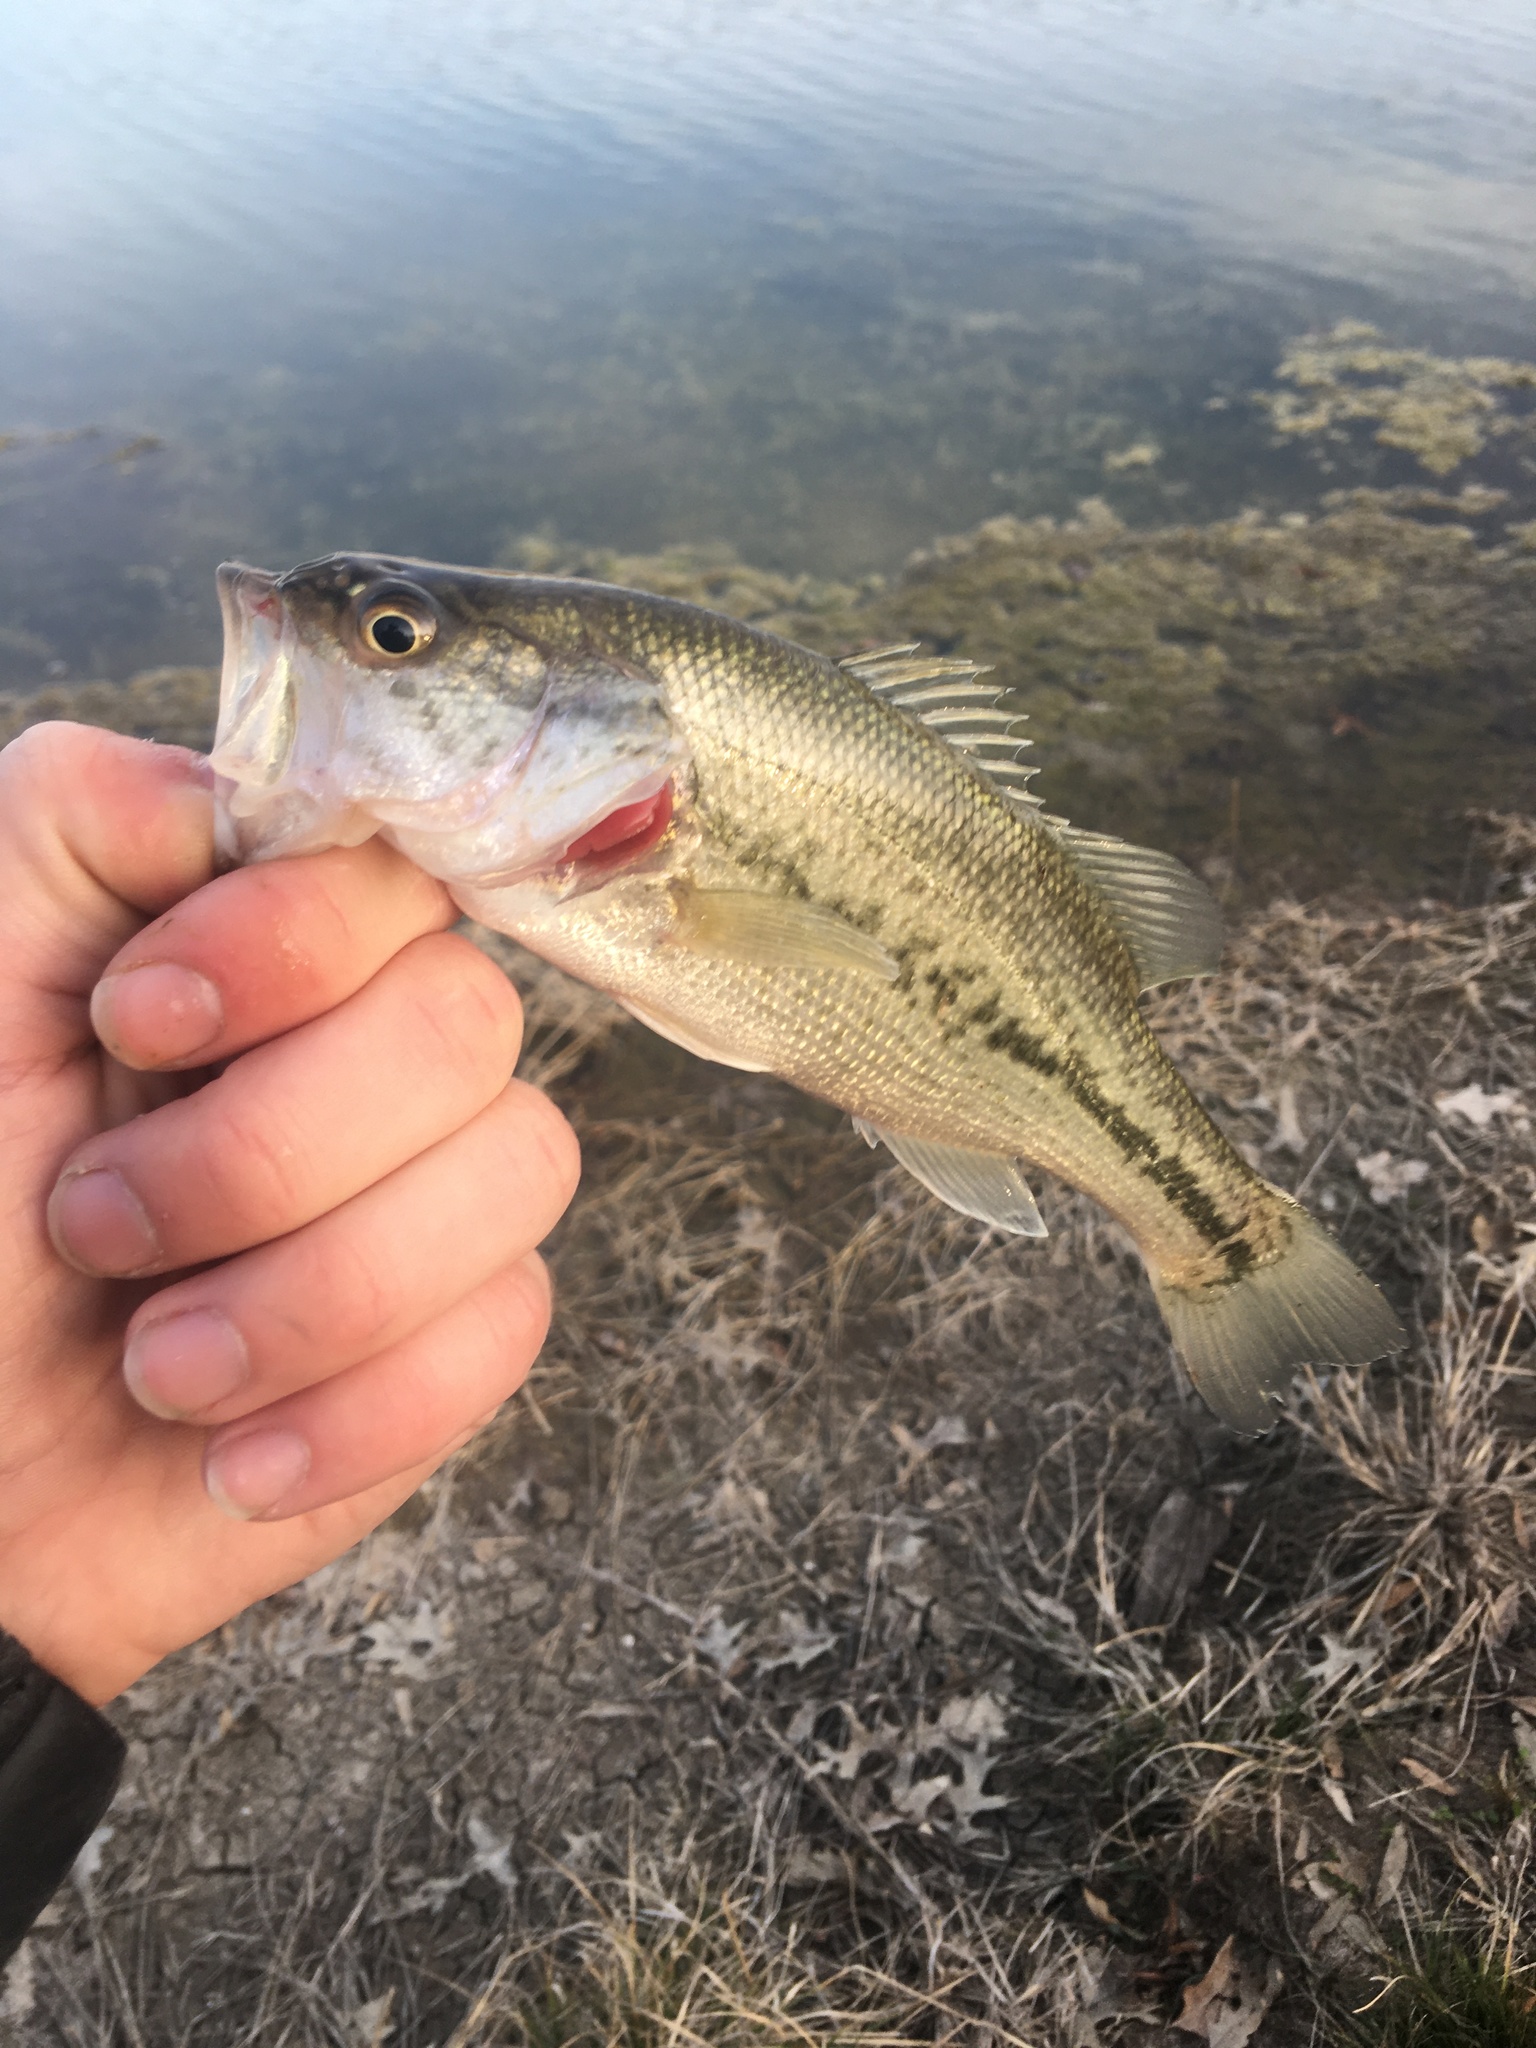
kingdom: Animalia
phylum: Chordata
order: Perciformes
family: Centrarchidae
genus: Micropterus
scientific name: Micropterus
